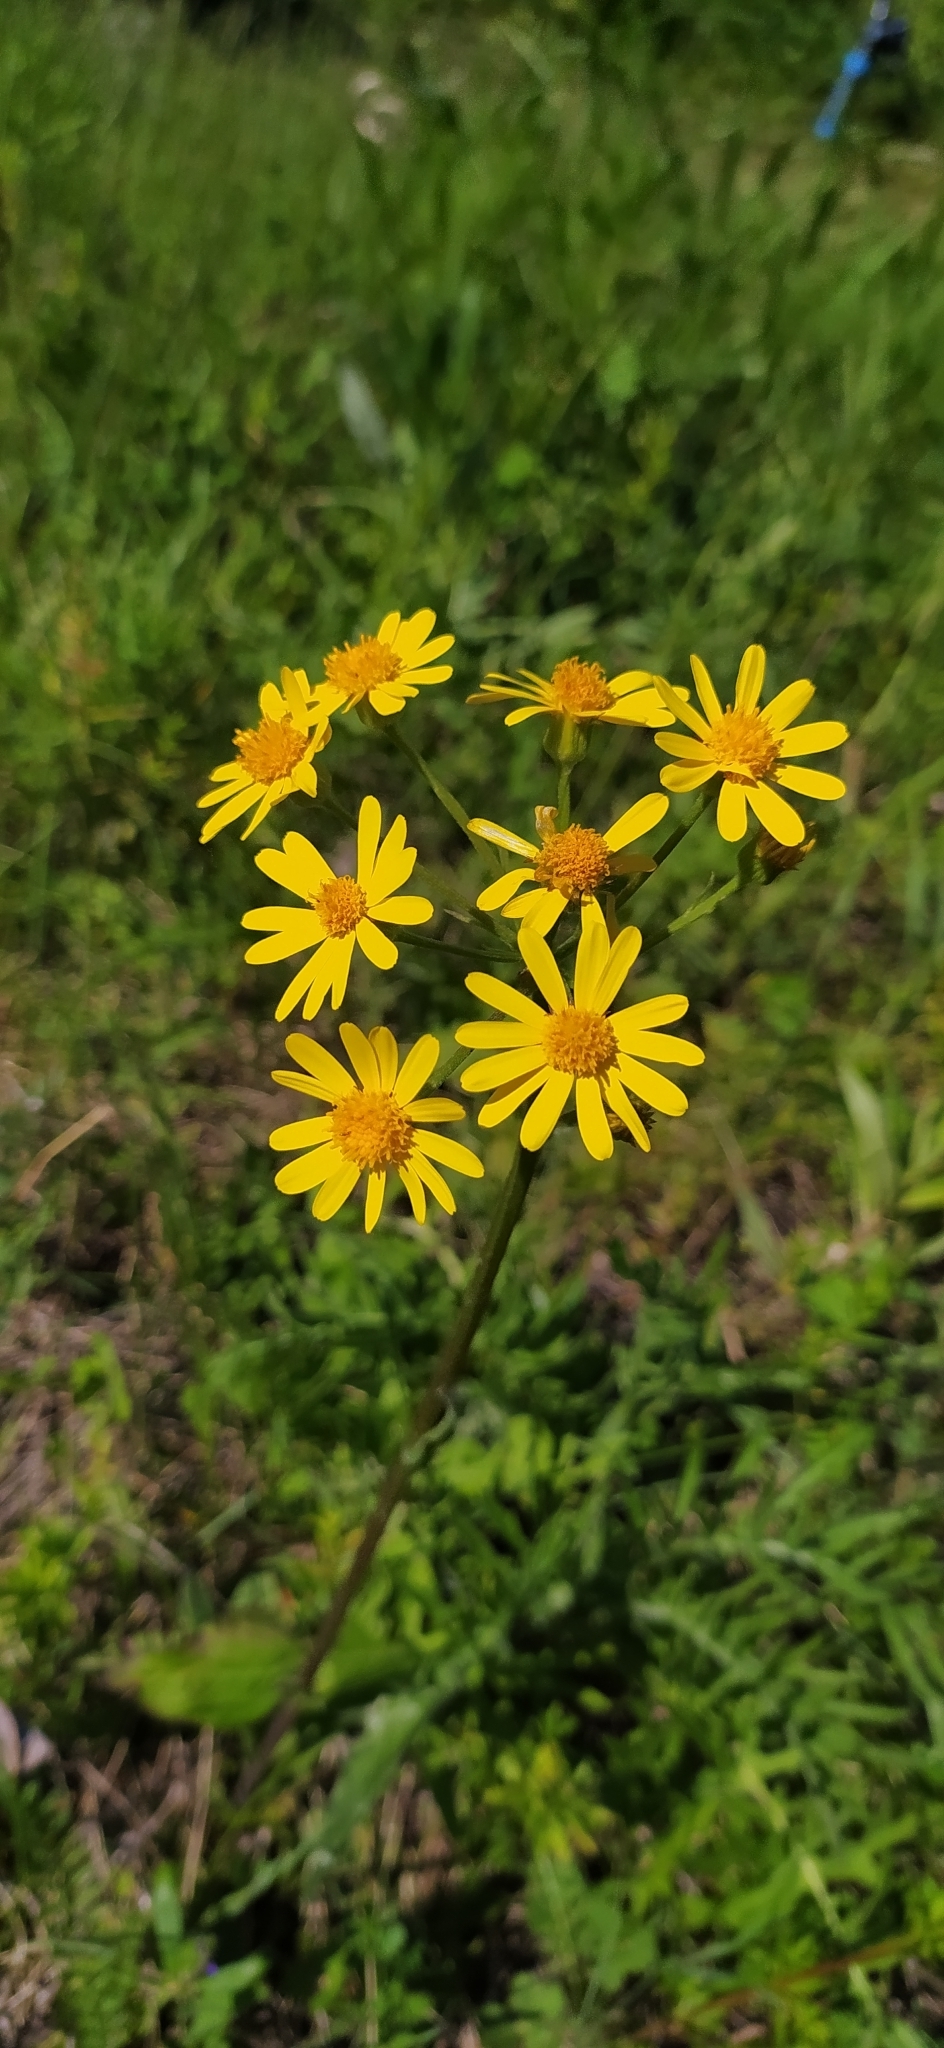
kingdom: Plantae
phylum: Tracheophyta
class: Magnoliopsida
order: Asterales
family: Asteraceae
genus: Tephroseris
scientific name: Tephroseris integrifolia
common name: Field fleawort
